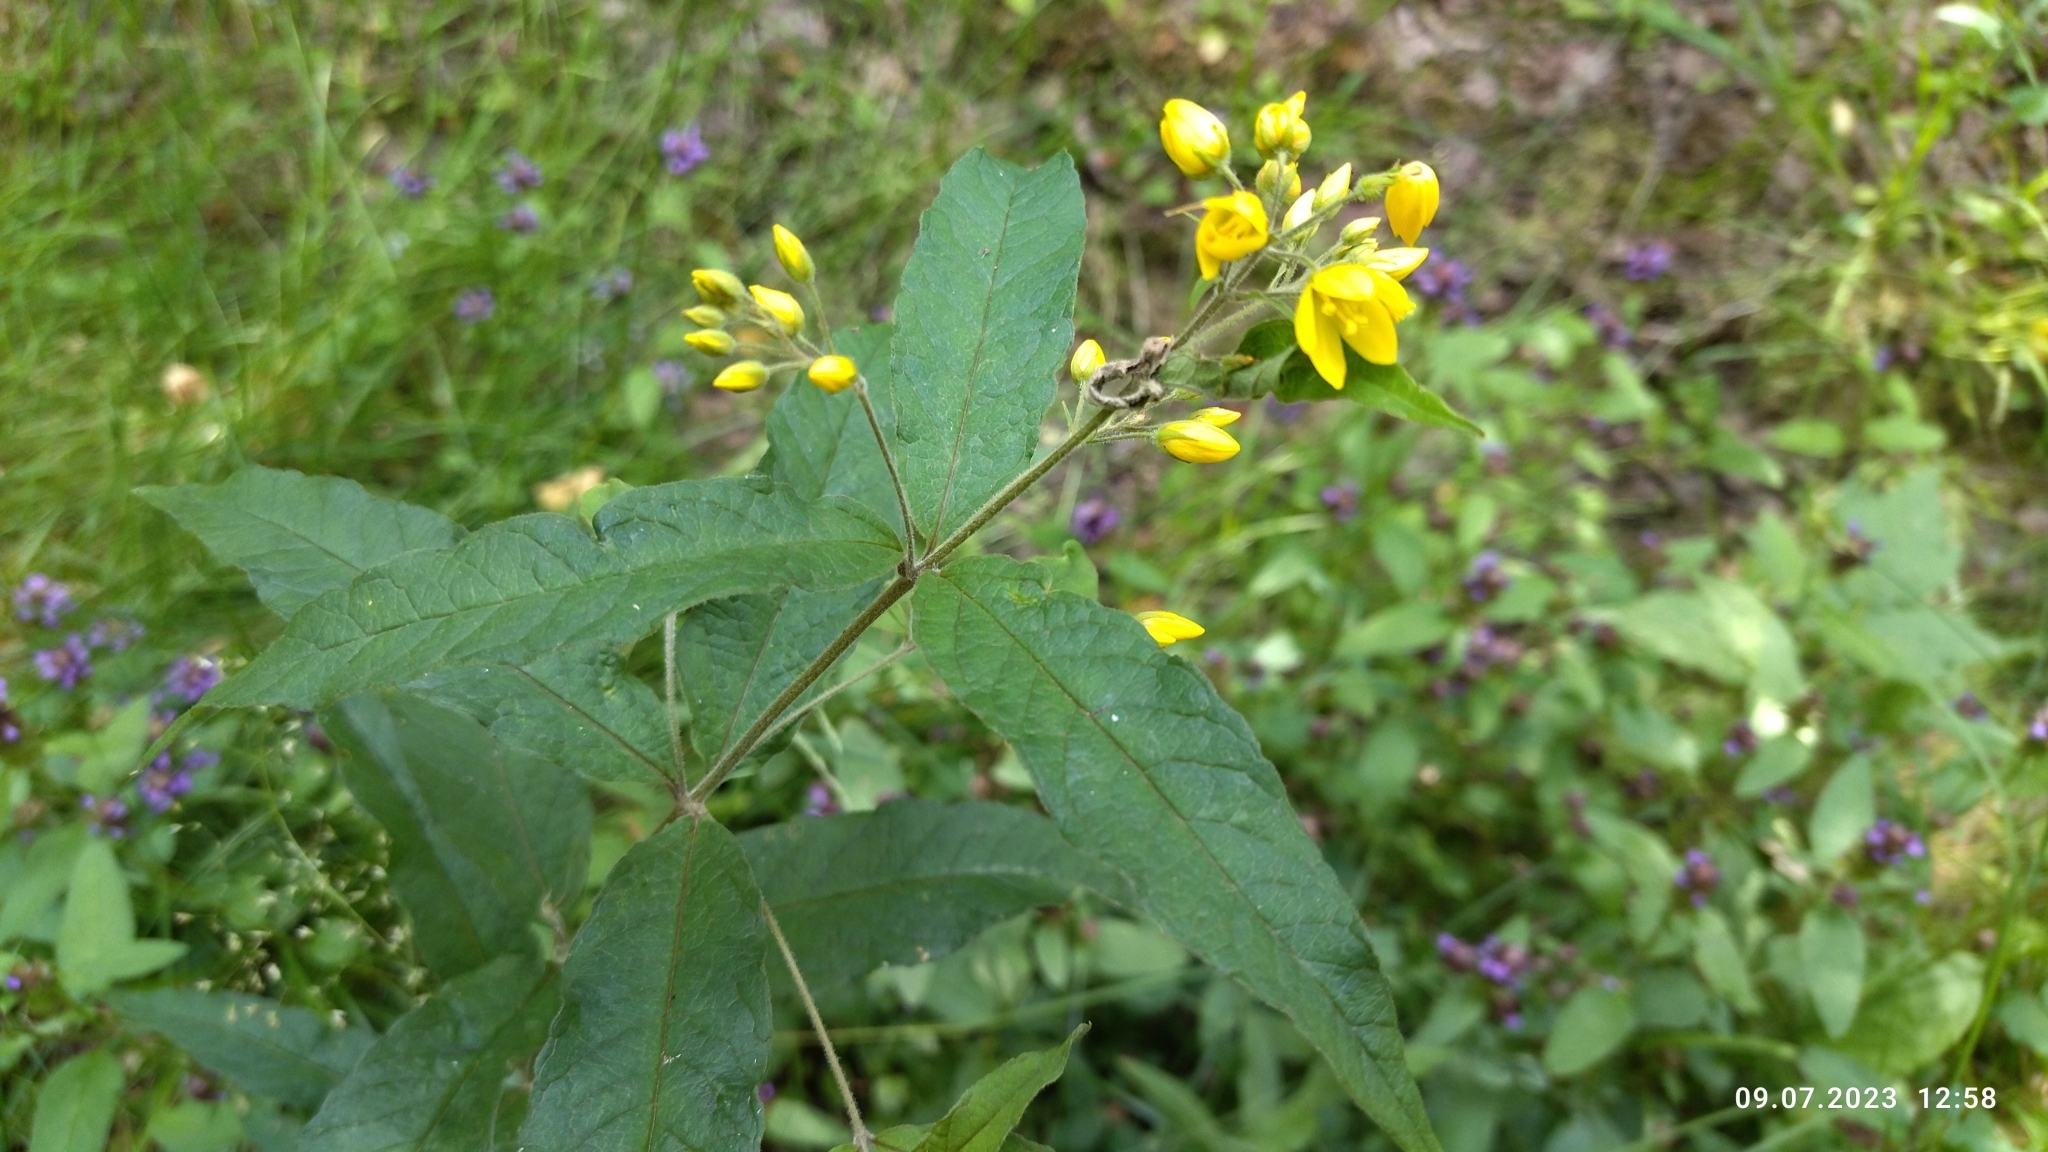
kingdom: Plantae
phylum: Tracheophyta
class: Magnoliopsida
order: Ericales
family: Primulaceae
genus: Lysimachia
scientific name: Lysimachia vulgaris
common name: Yellow loosestrife
